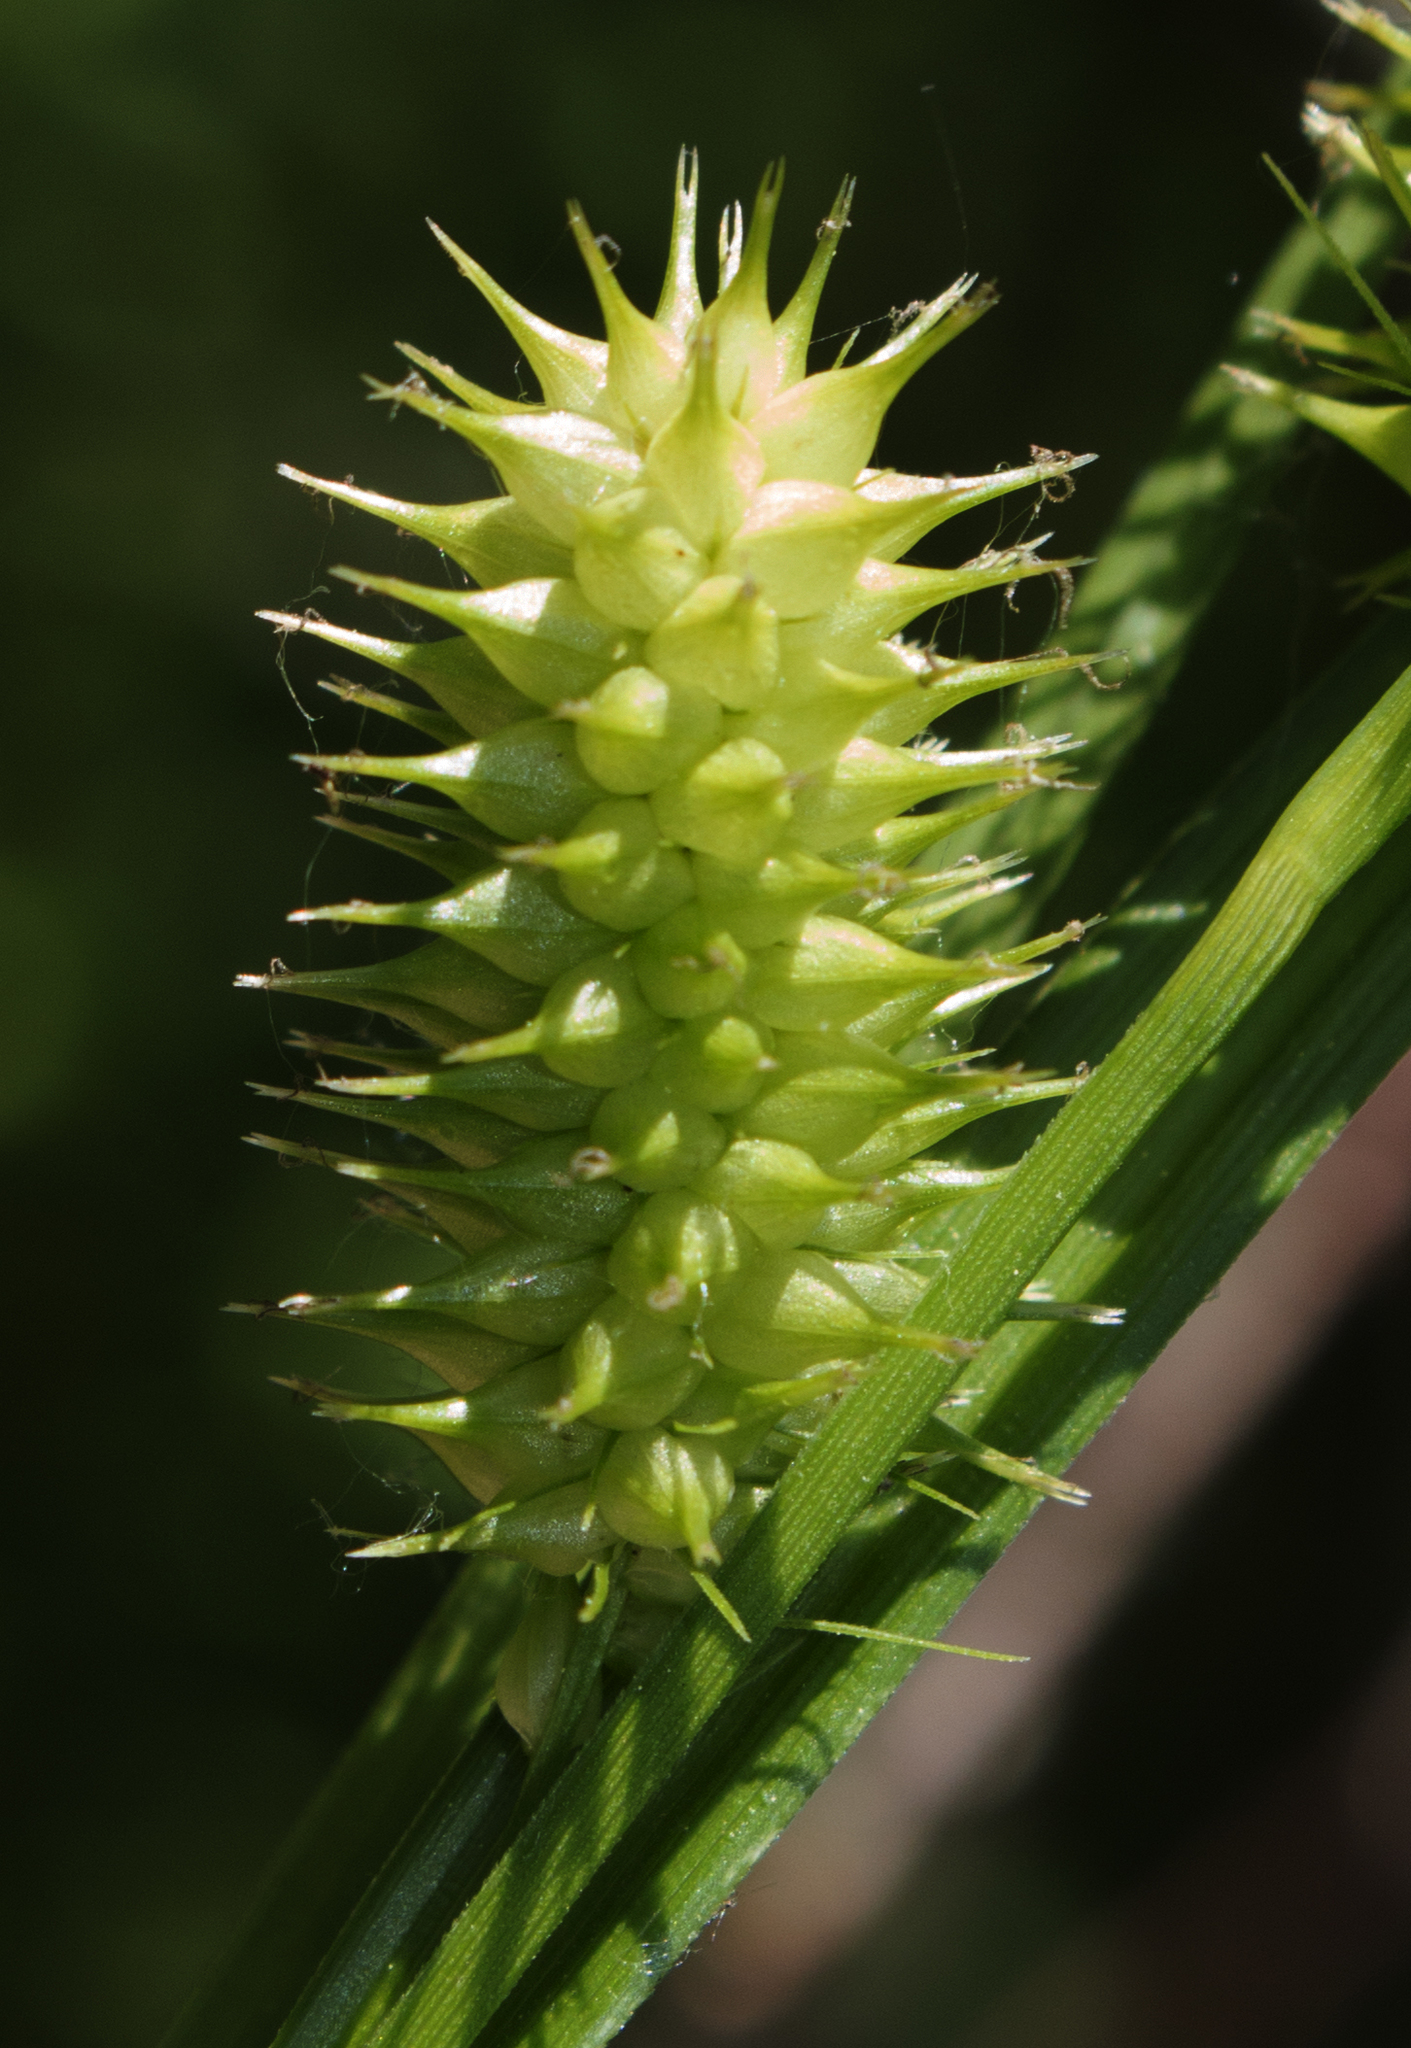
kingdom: Plantae
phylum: Tracheophyta
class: Liliopsida
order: Poales
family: Cyperaceae
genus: Carex
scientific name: Carex hystericina
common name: Bottlebrush sedge
